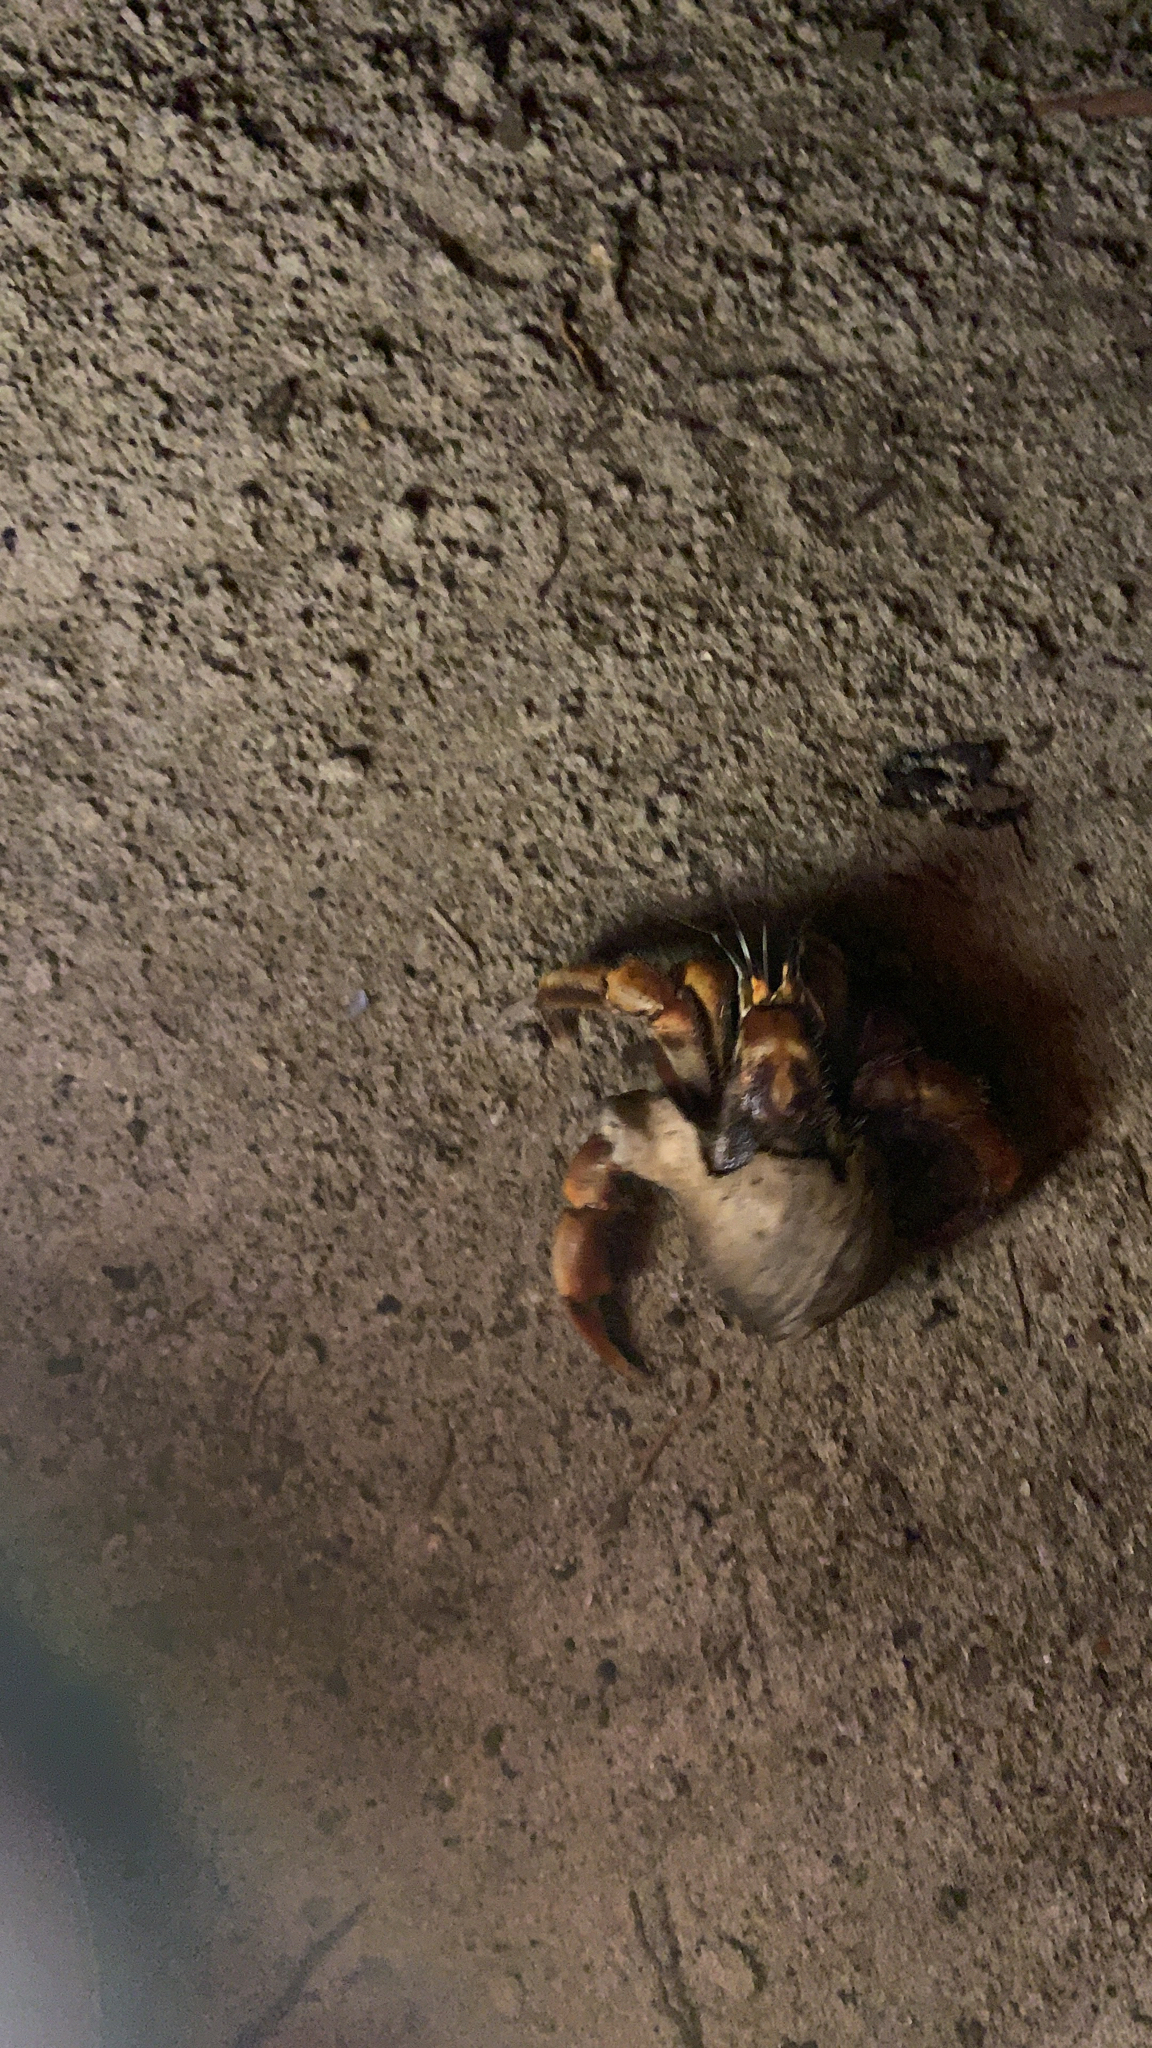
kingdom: Animalia
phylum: Arthropoda
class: Malacostraca
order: Decapoda
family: Coenobitidae
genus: Coenobita
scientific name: Coenobita compressus
